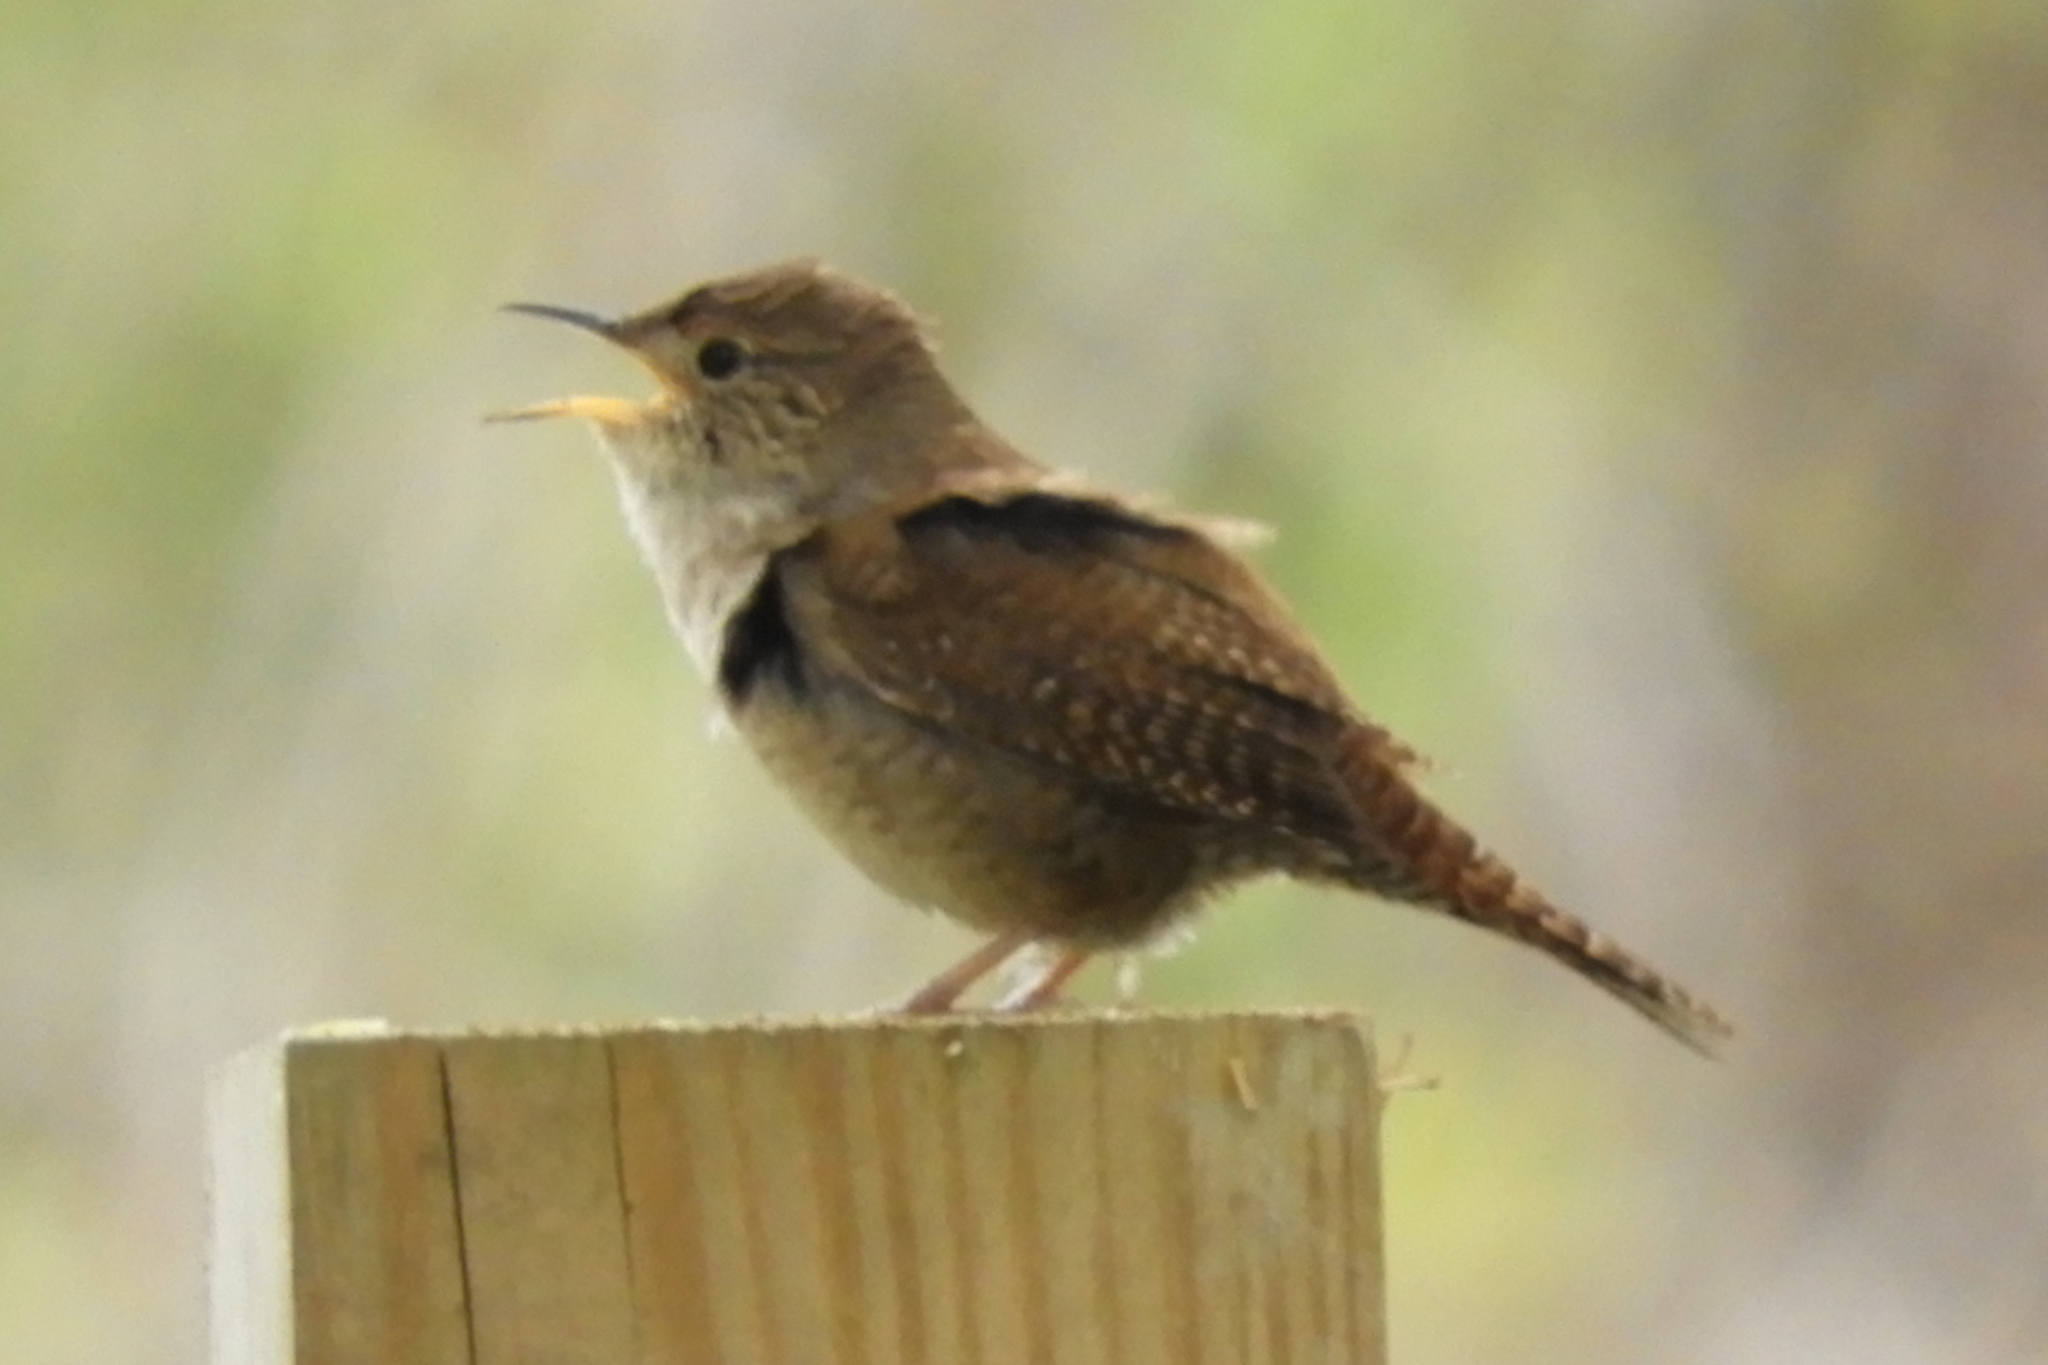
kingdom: Animalia
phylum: Chordata
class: Aves
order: Passeriformes
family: Troglodytidae
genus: Troglodytes
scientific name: Troglodytes aedon
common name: House wren
